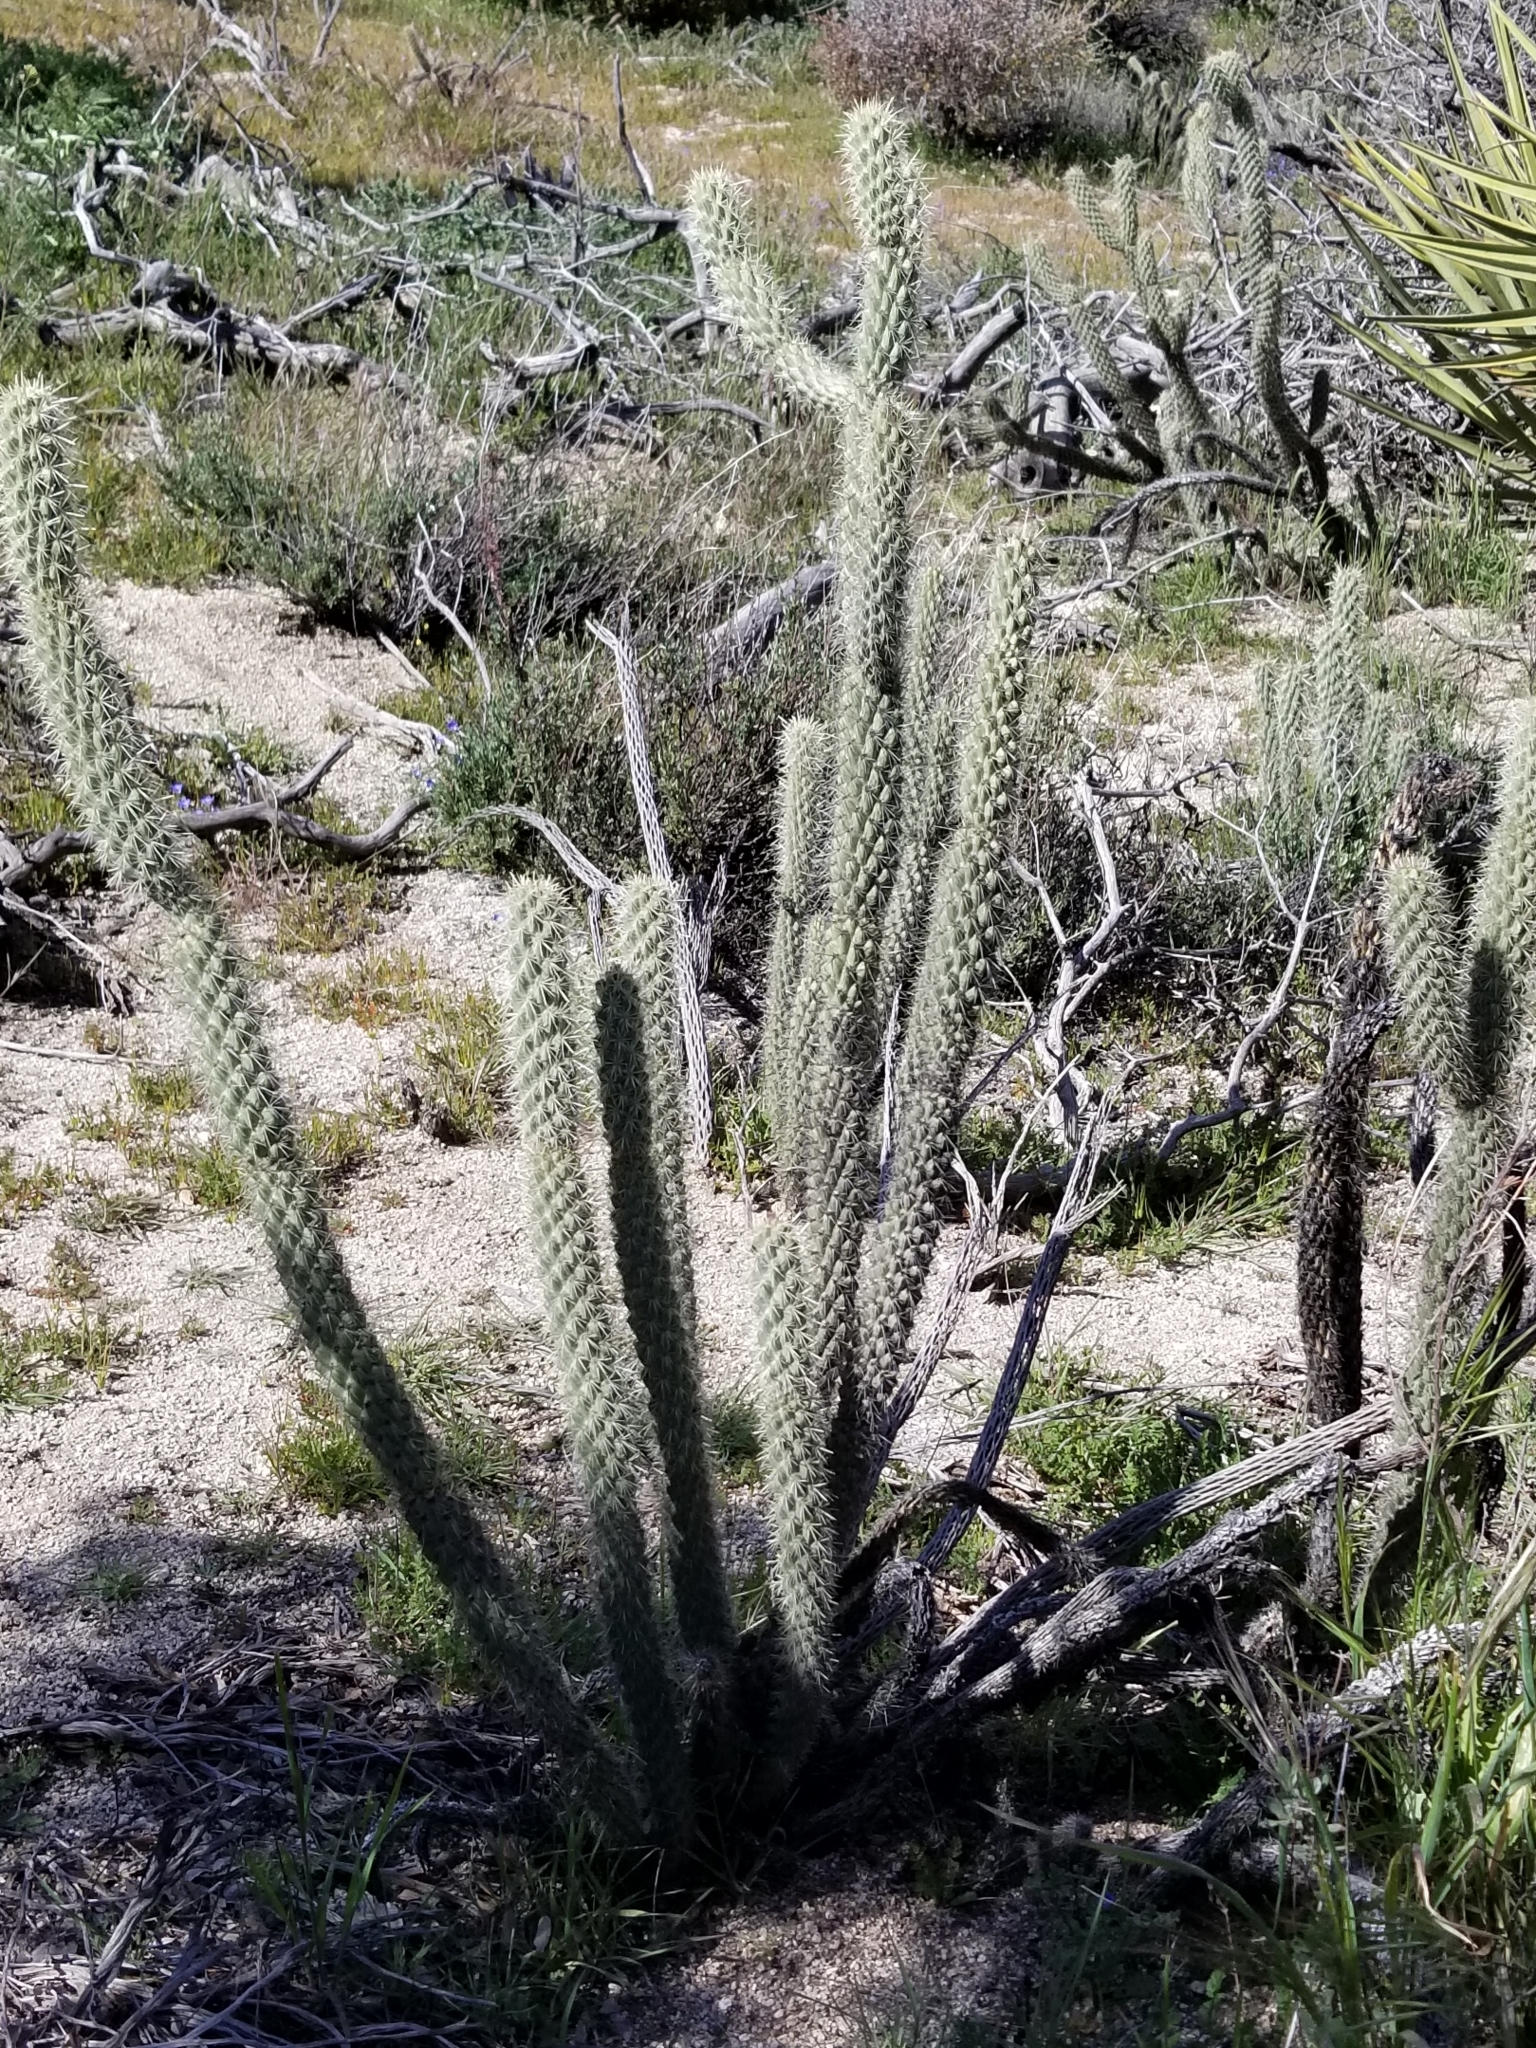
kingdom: Plantae
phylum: Tracheophyta
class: Magnoliopsida
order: Caryophyllales
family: Cactaceae
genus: Cylindropuntia
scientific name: Cylindropuntia ganderi
